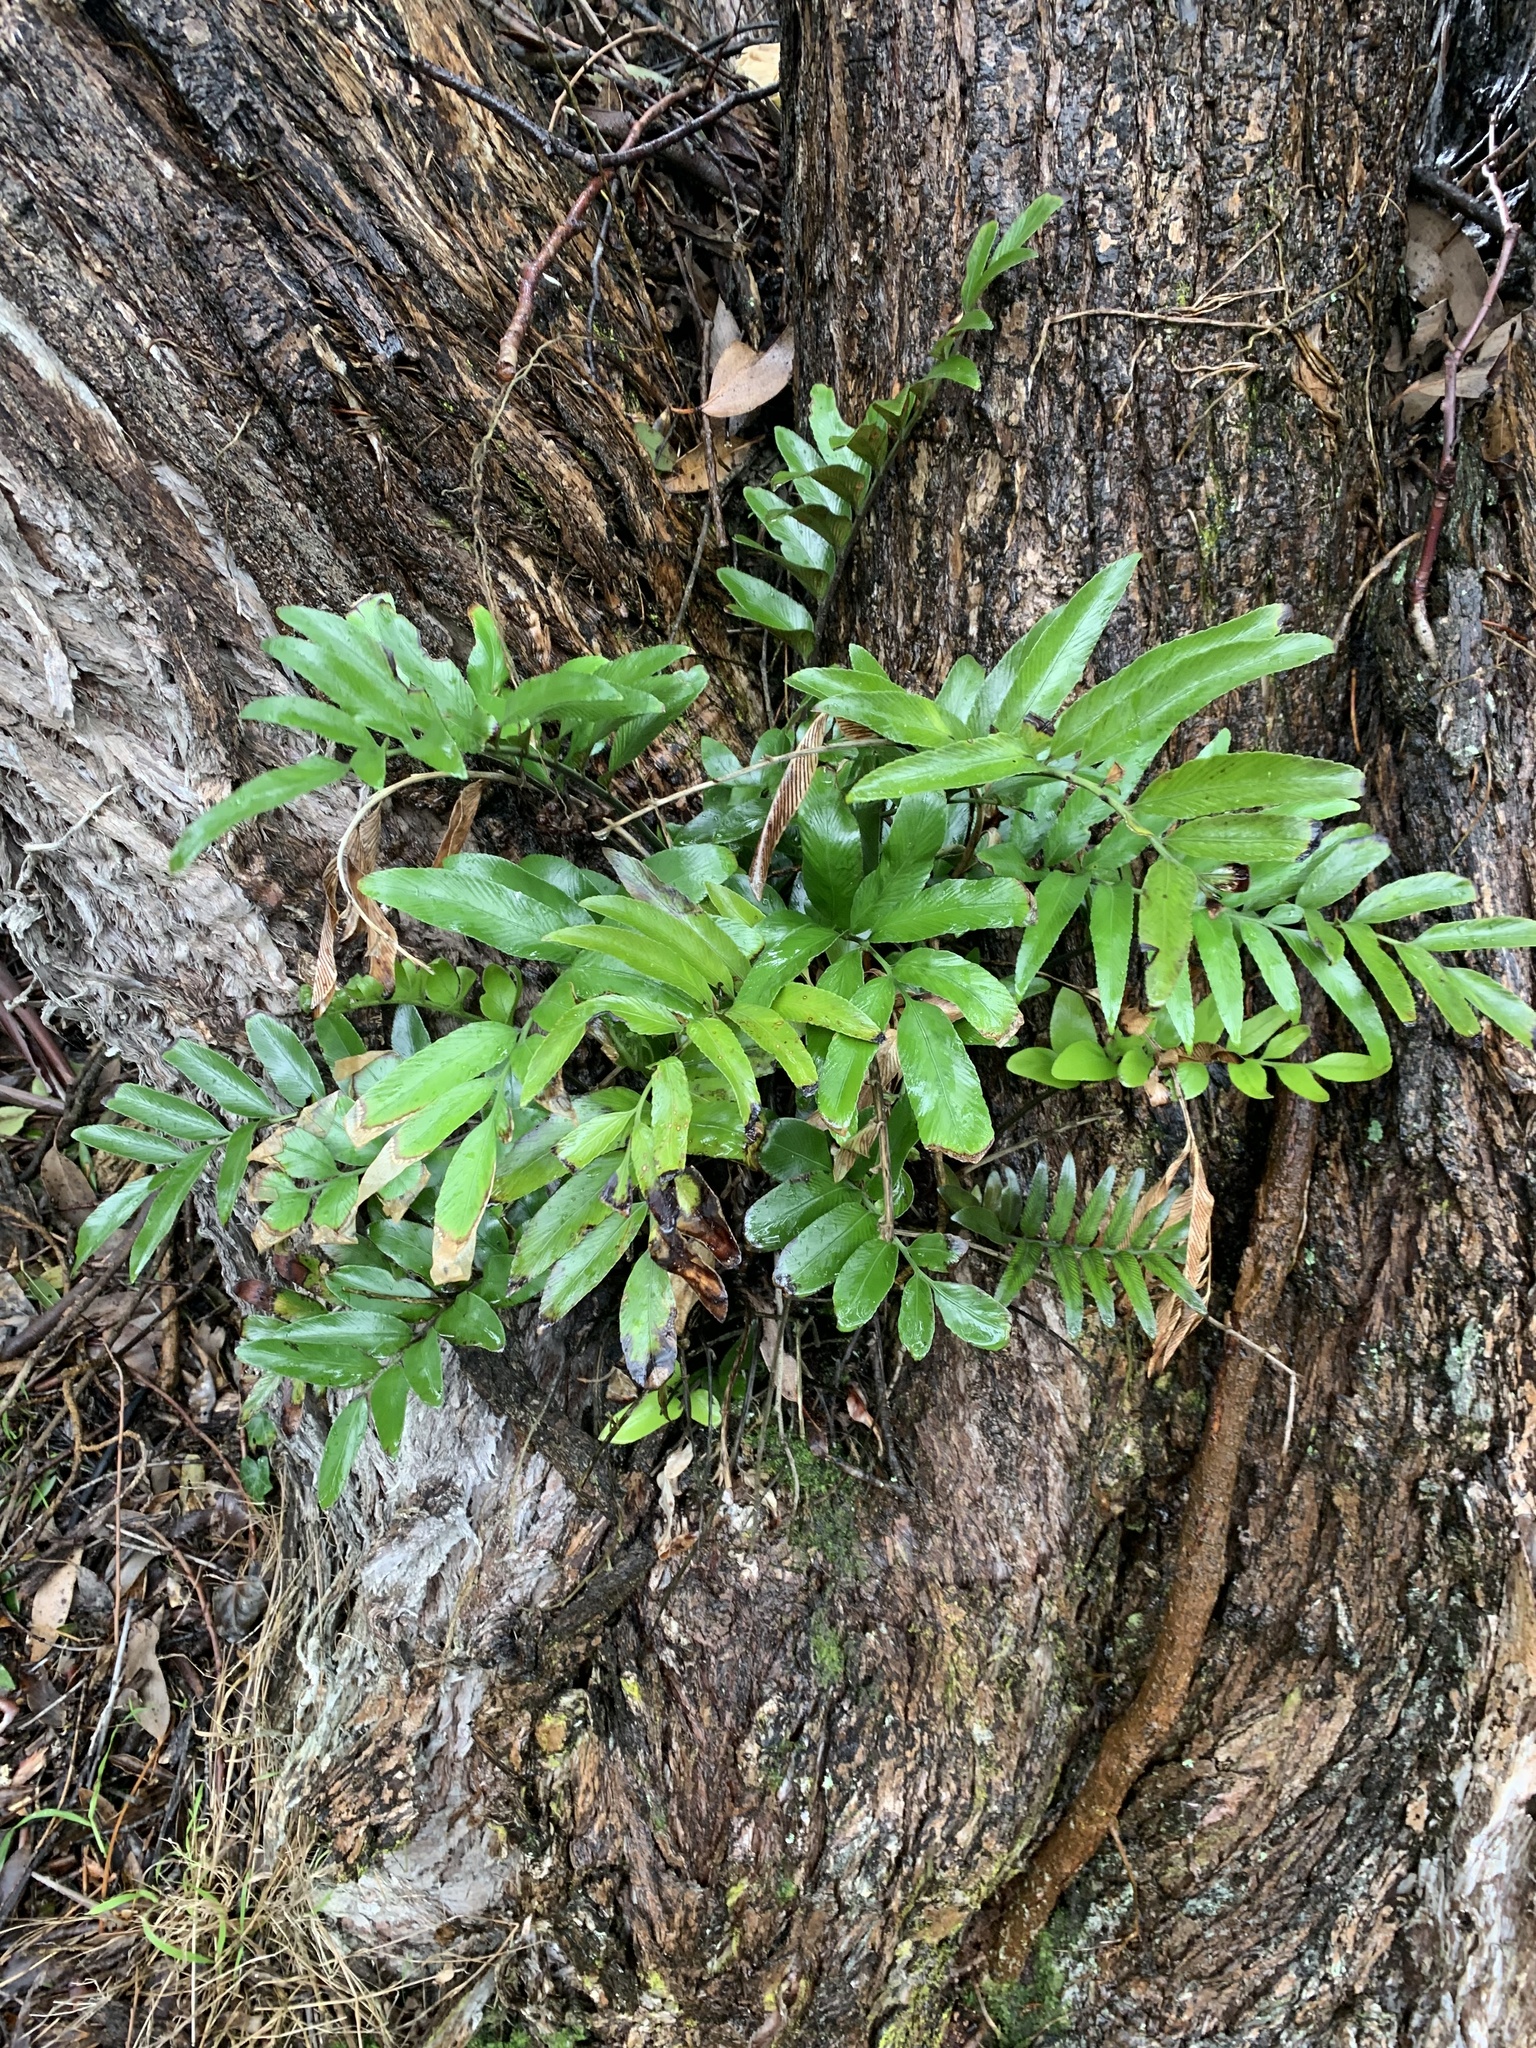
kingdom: Plantae
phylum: Tracheophyta
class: Polypodiopsida
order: Polypodiales
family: Aspleniaceae
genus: Asplenium
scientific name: Asplenium oblongifolium
